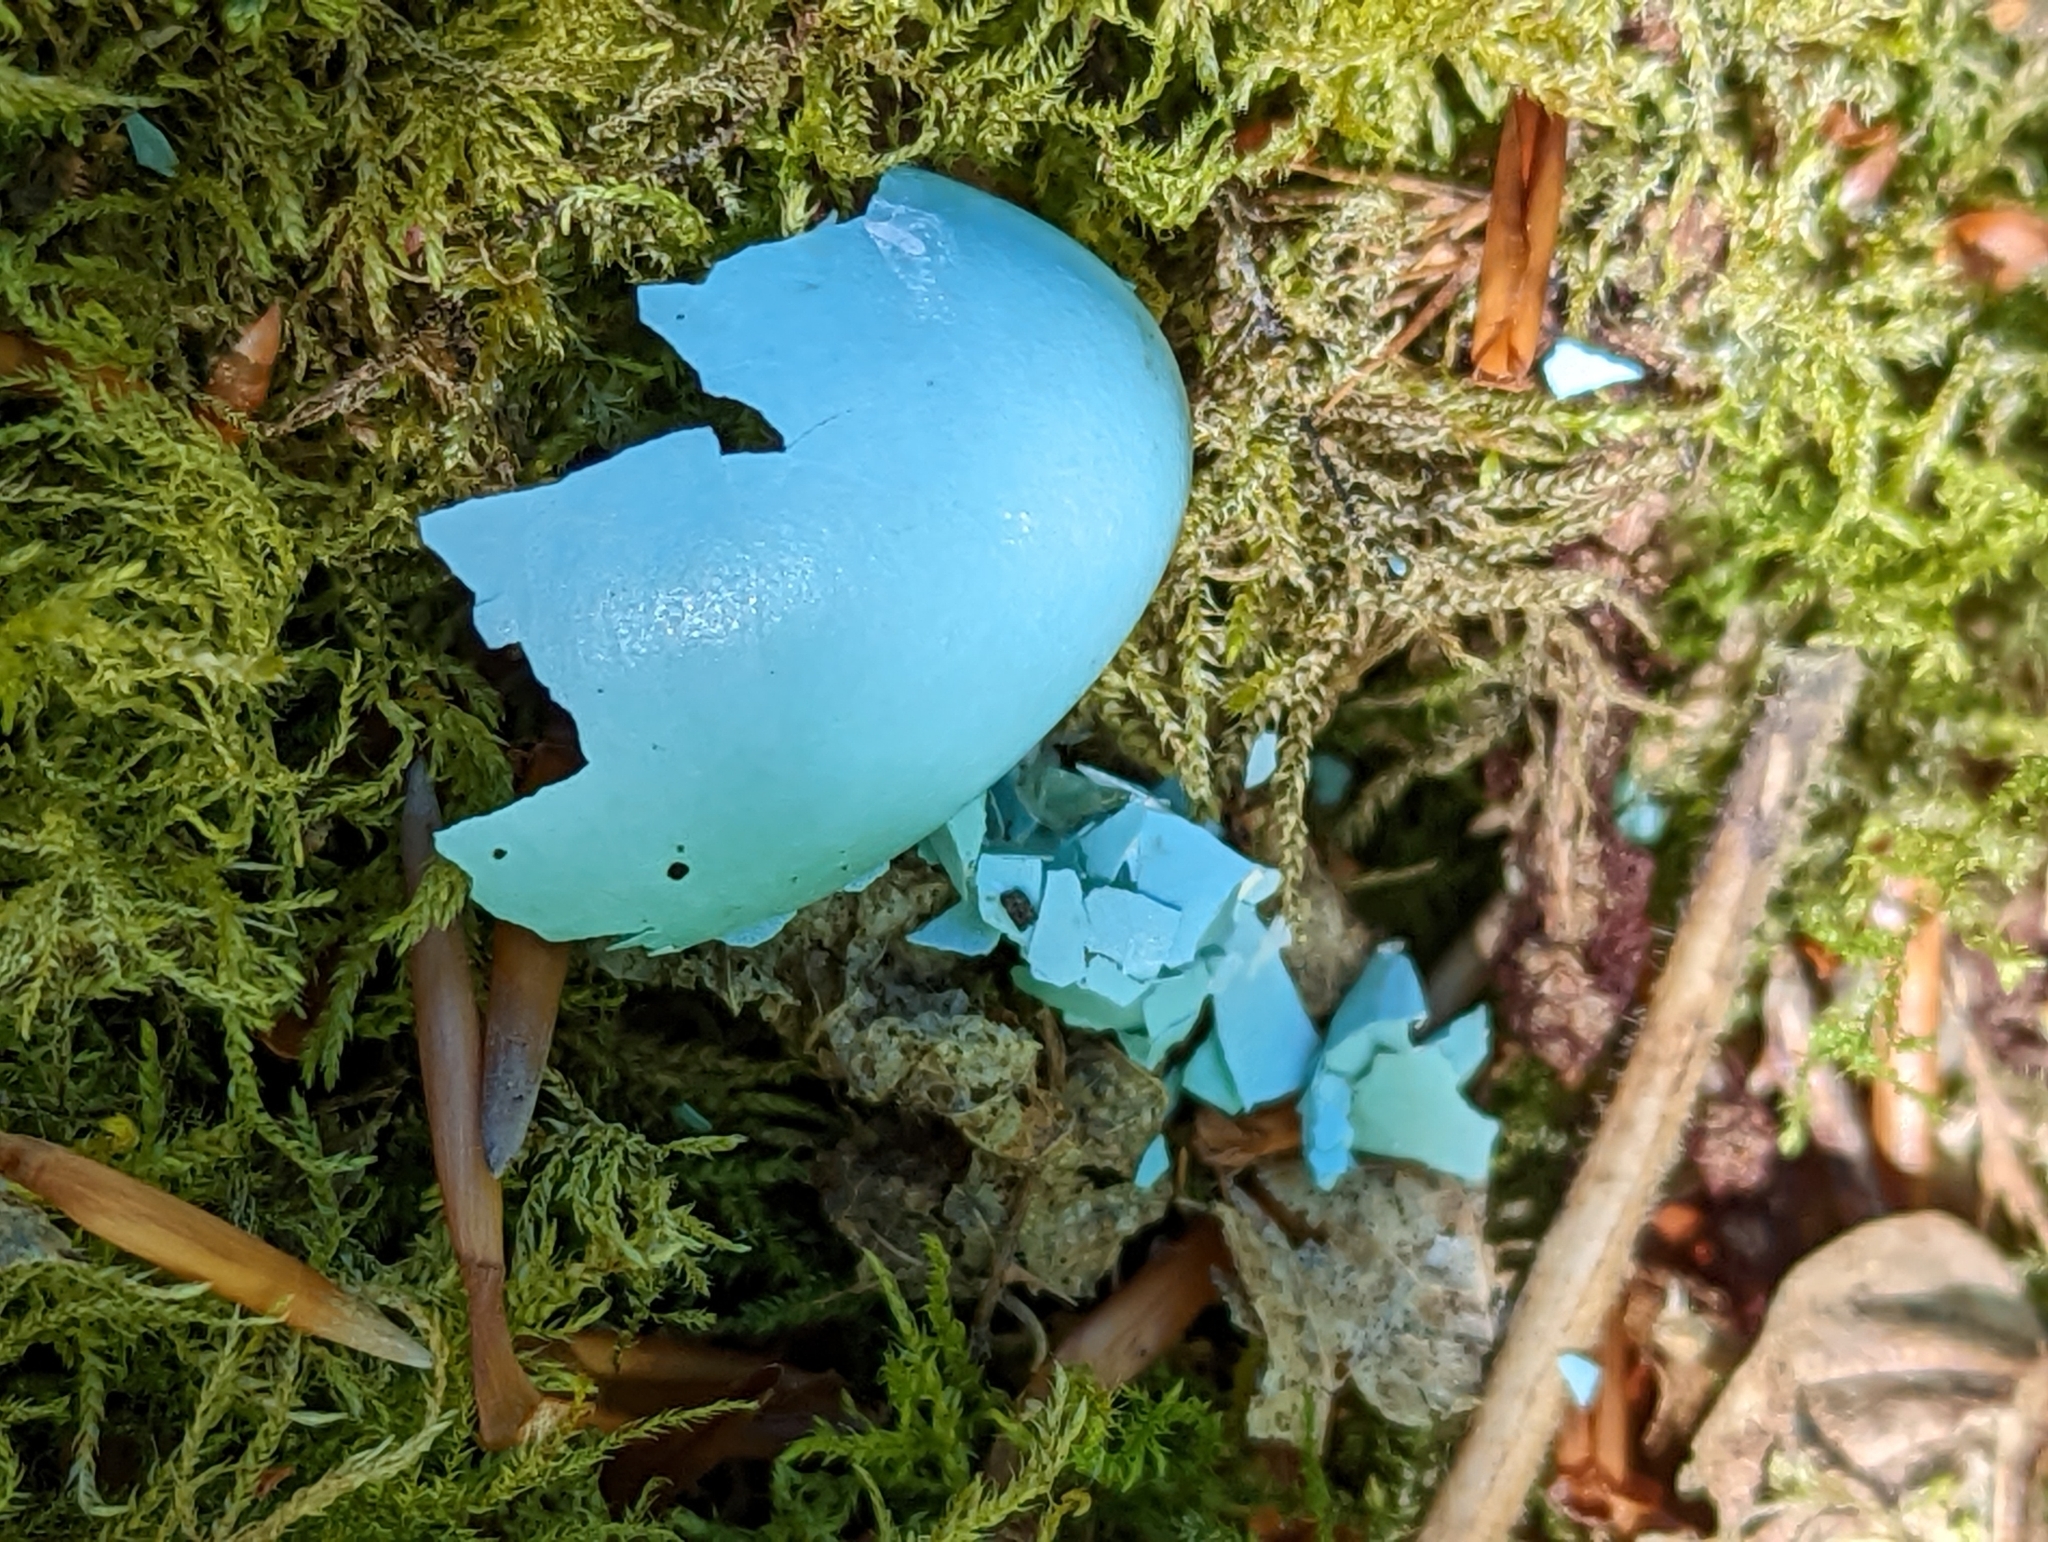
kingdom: Animalia
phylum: Chordata
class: Aves
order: Passeriformes
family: Turdidae
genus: Turdus
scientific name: Turdus philomelos
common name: Song thrush
